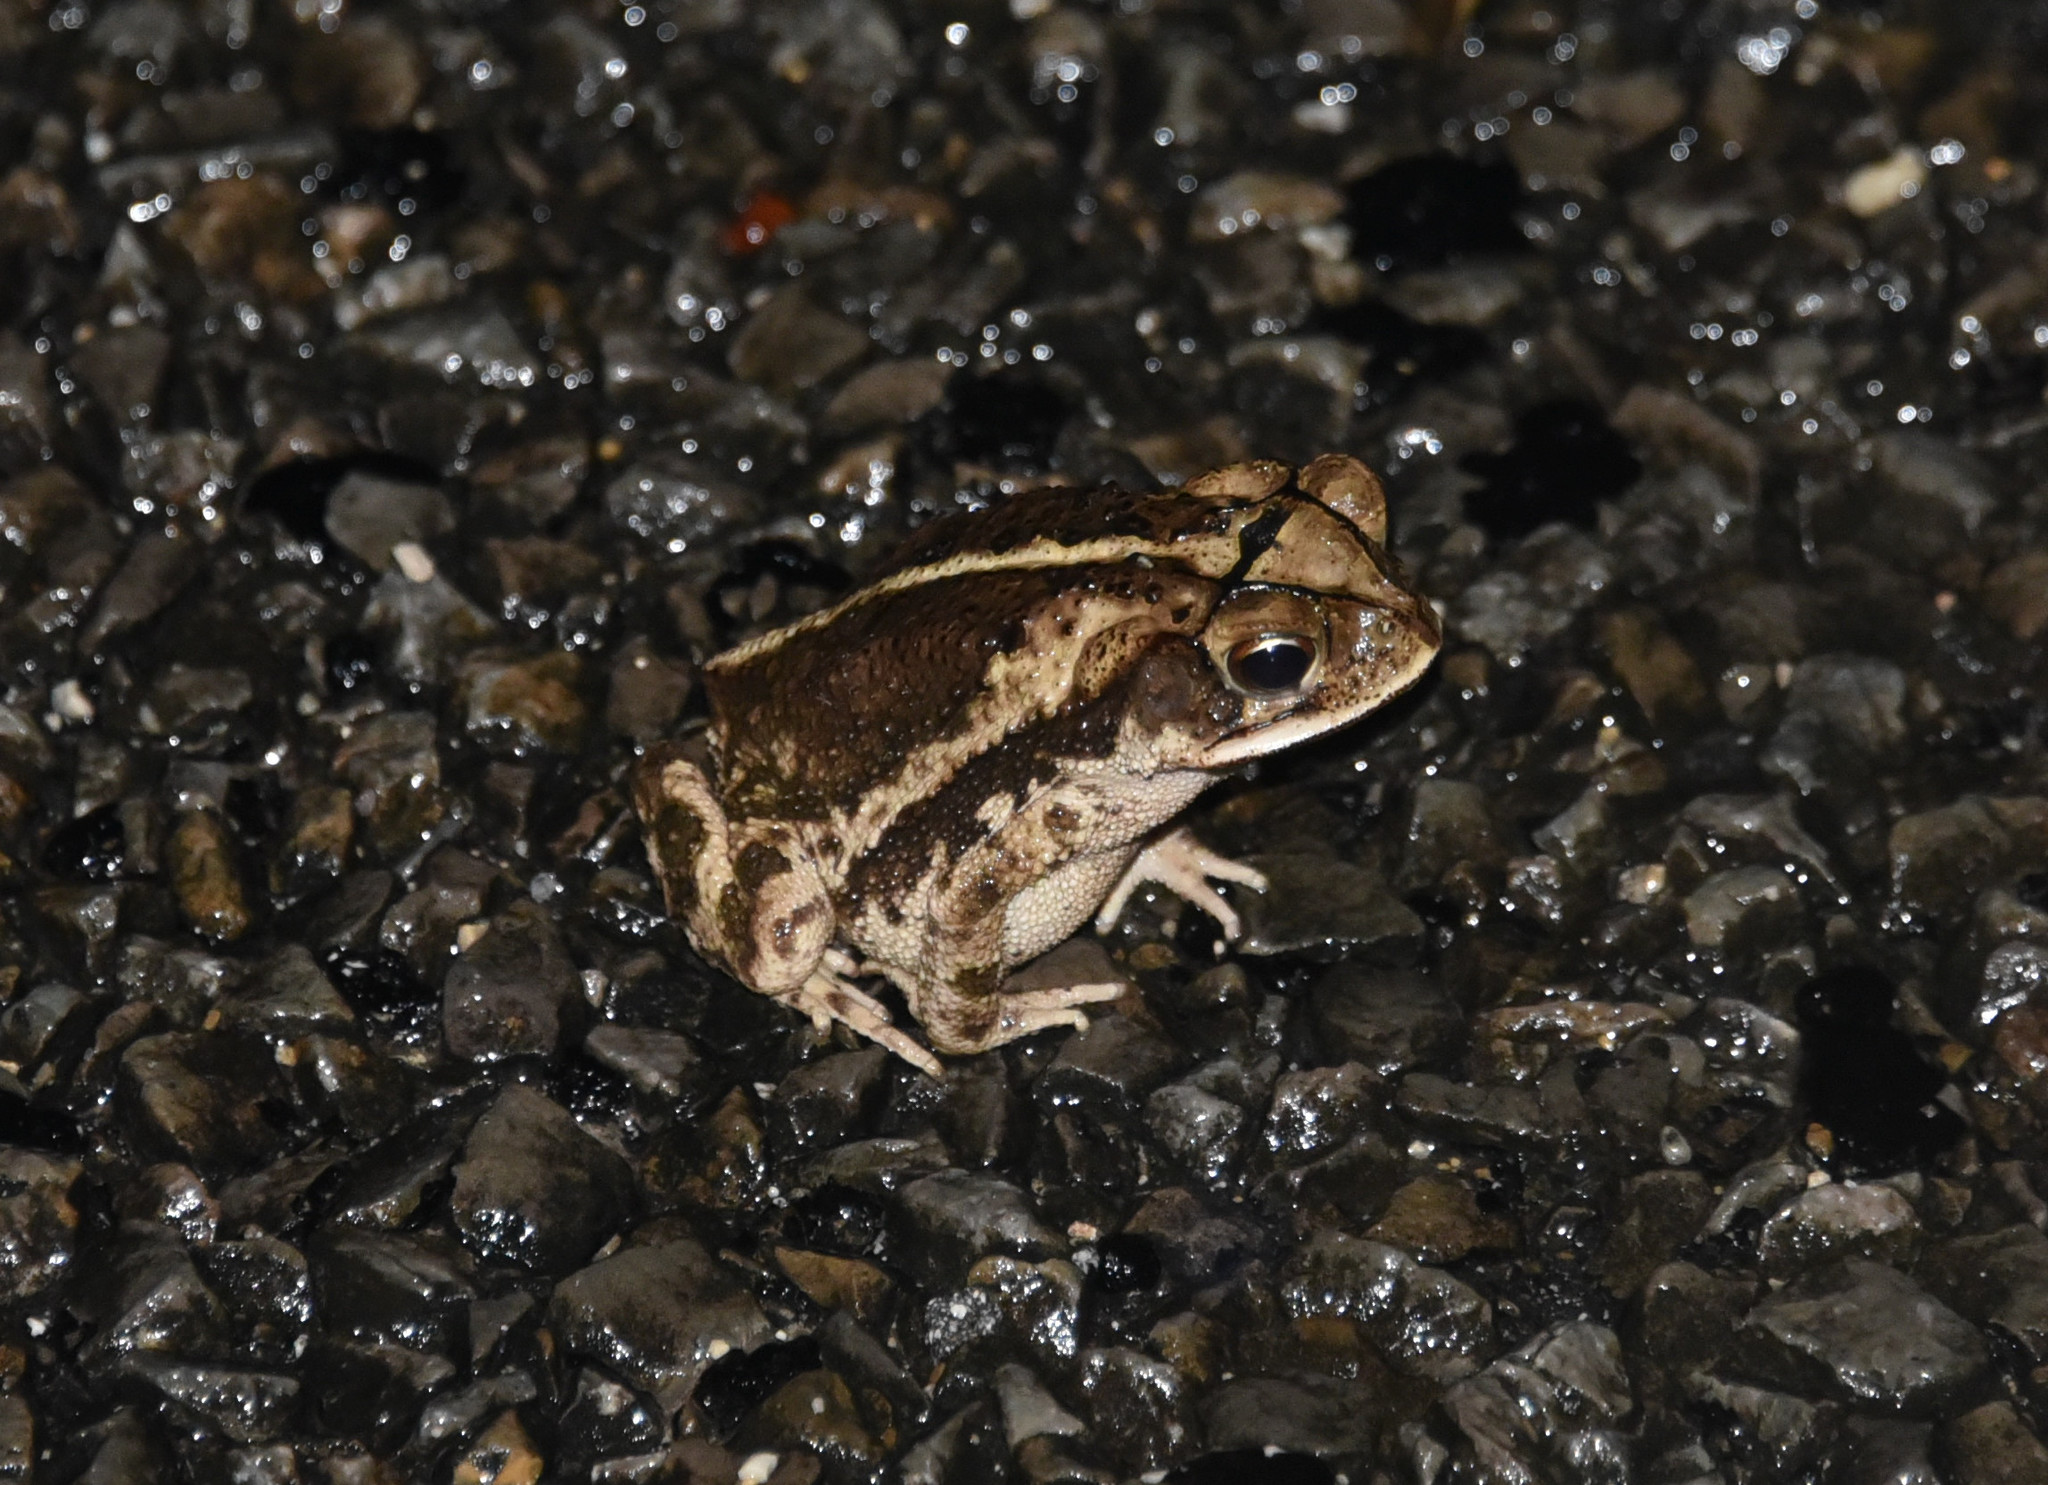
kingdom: Animalia
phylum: Chordata
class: Amphibia
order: Anura
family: Bufonidae
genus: Incilius
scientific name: Incilius nebulifer
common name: Gulf coast toad
